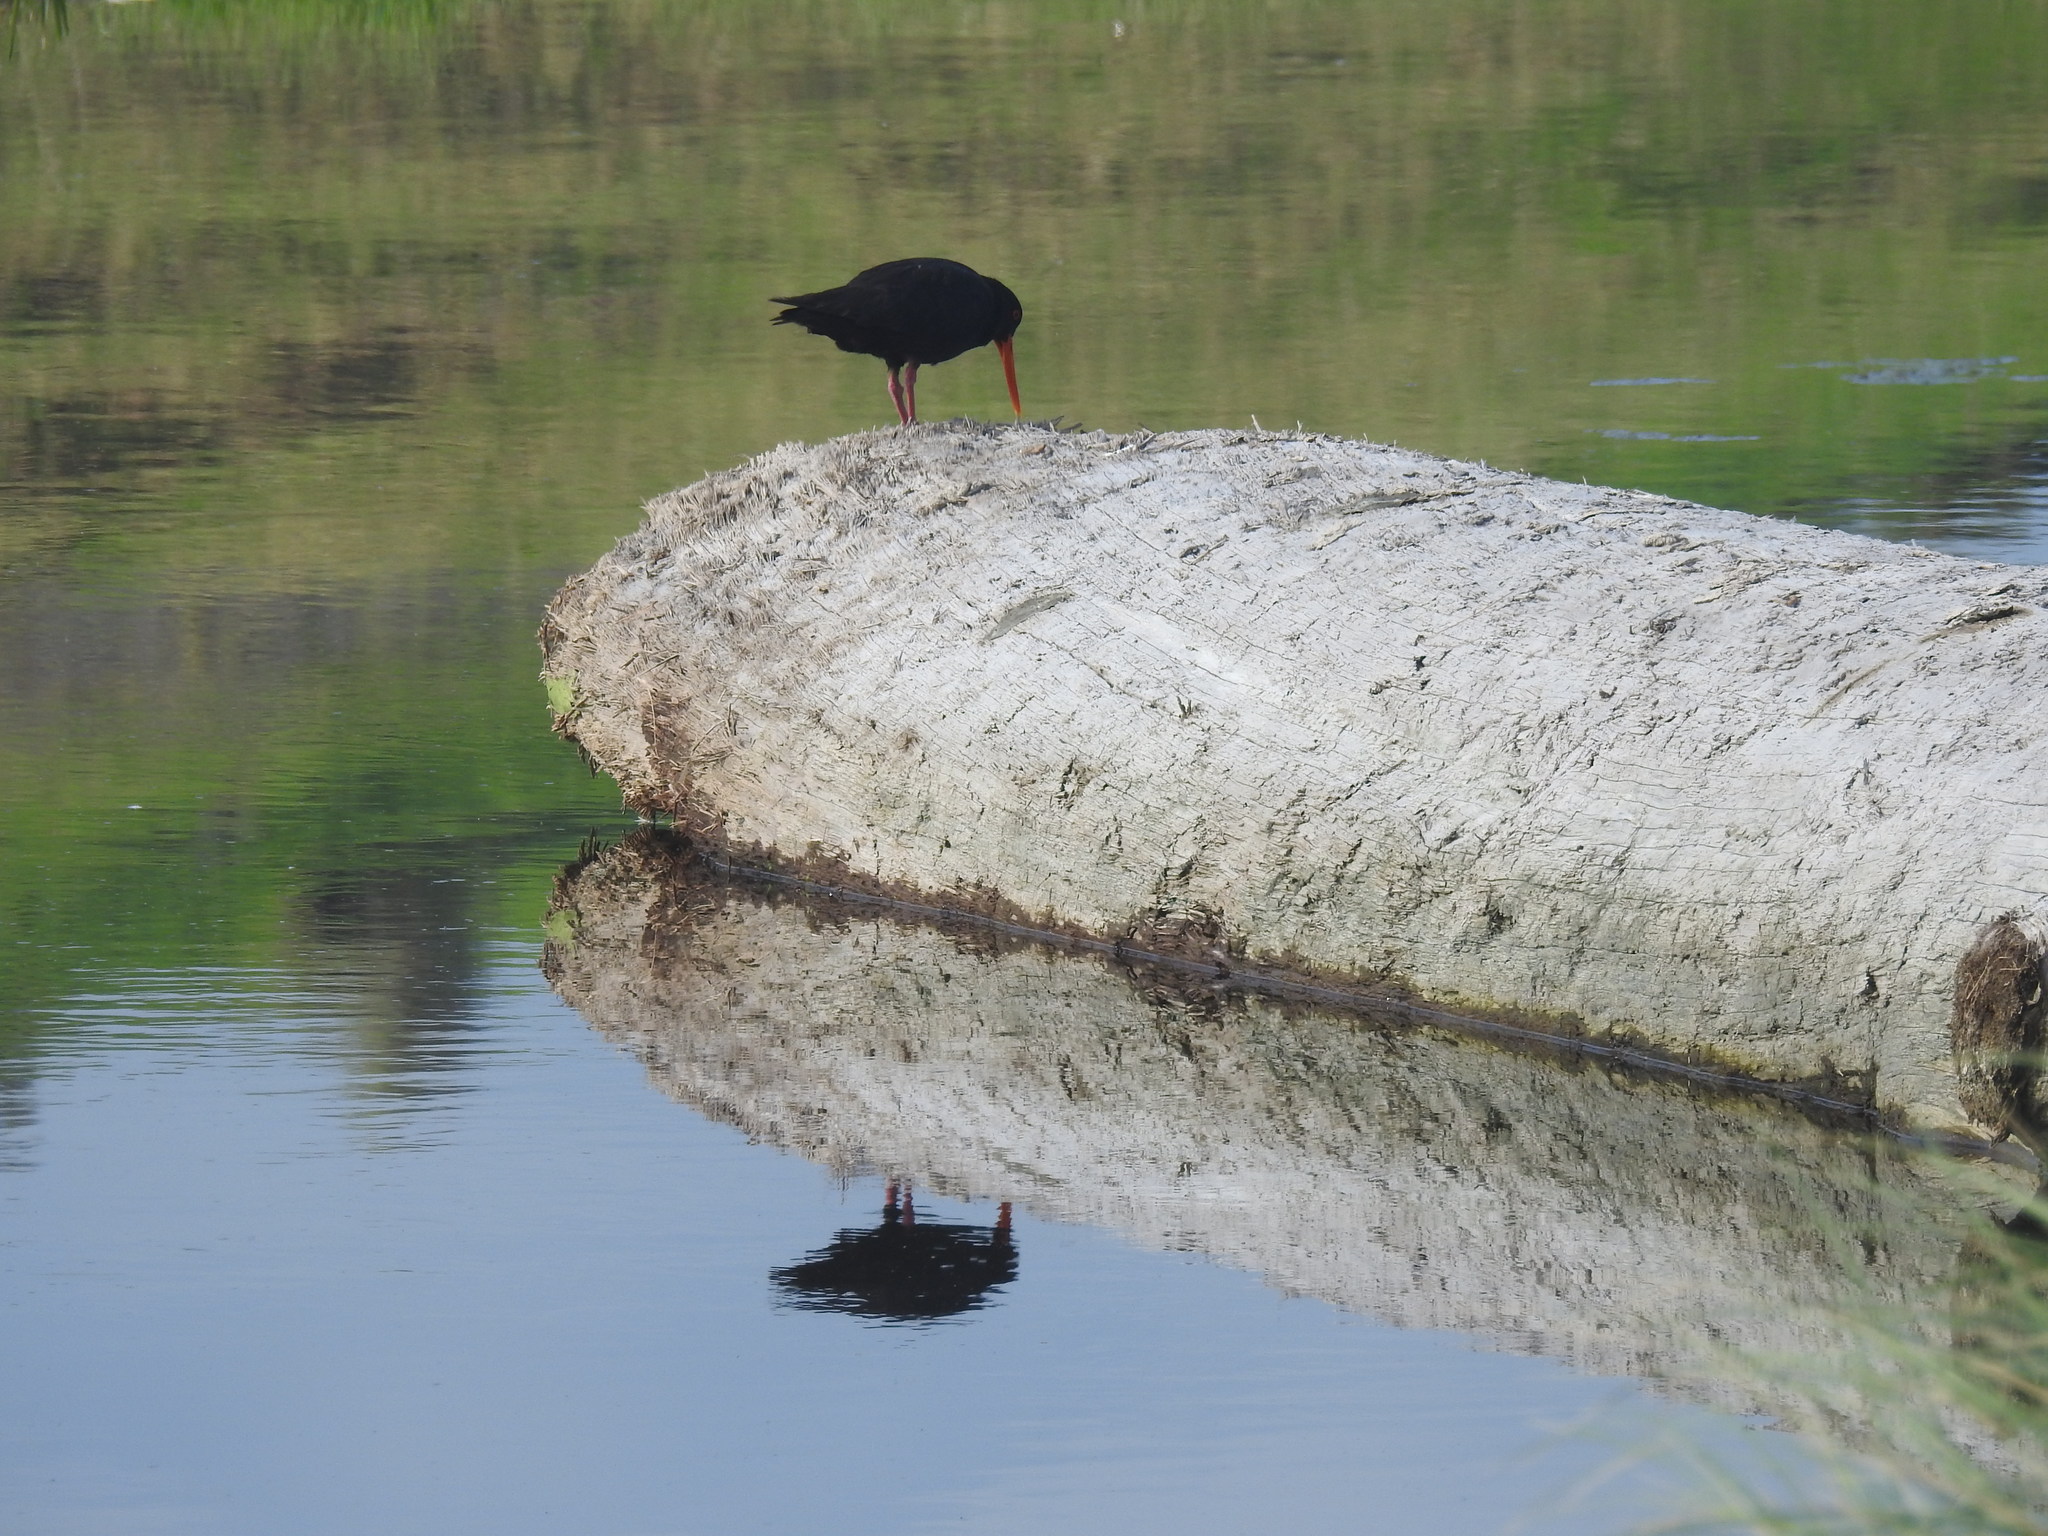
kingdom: Animalia
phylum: Chordata
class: Aves
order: Charadriiformes
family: Haematopodidae
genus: Haematopus
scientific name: Haematopus unicolor
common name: Variable oystercatcher
